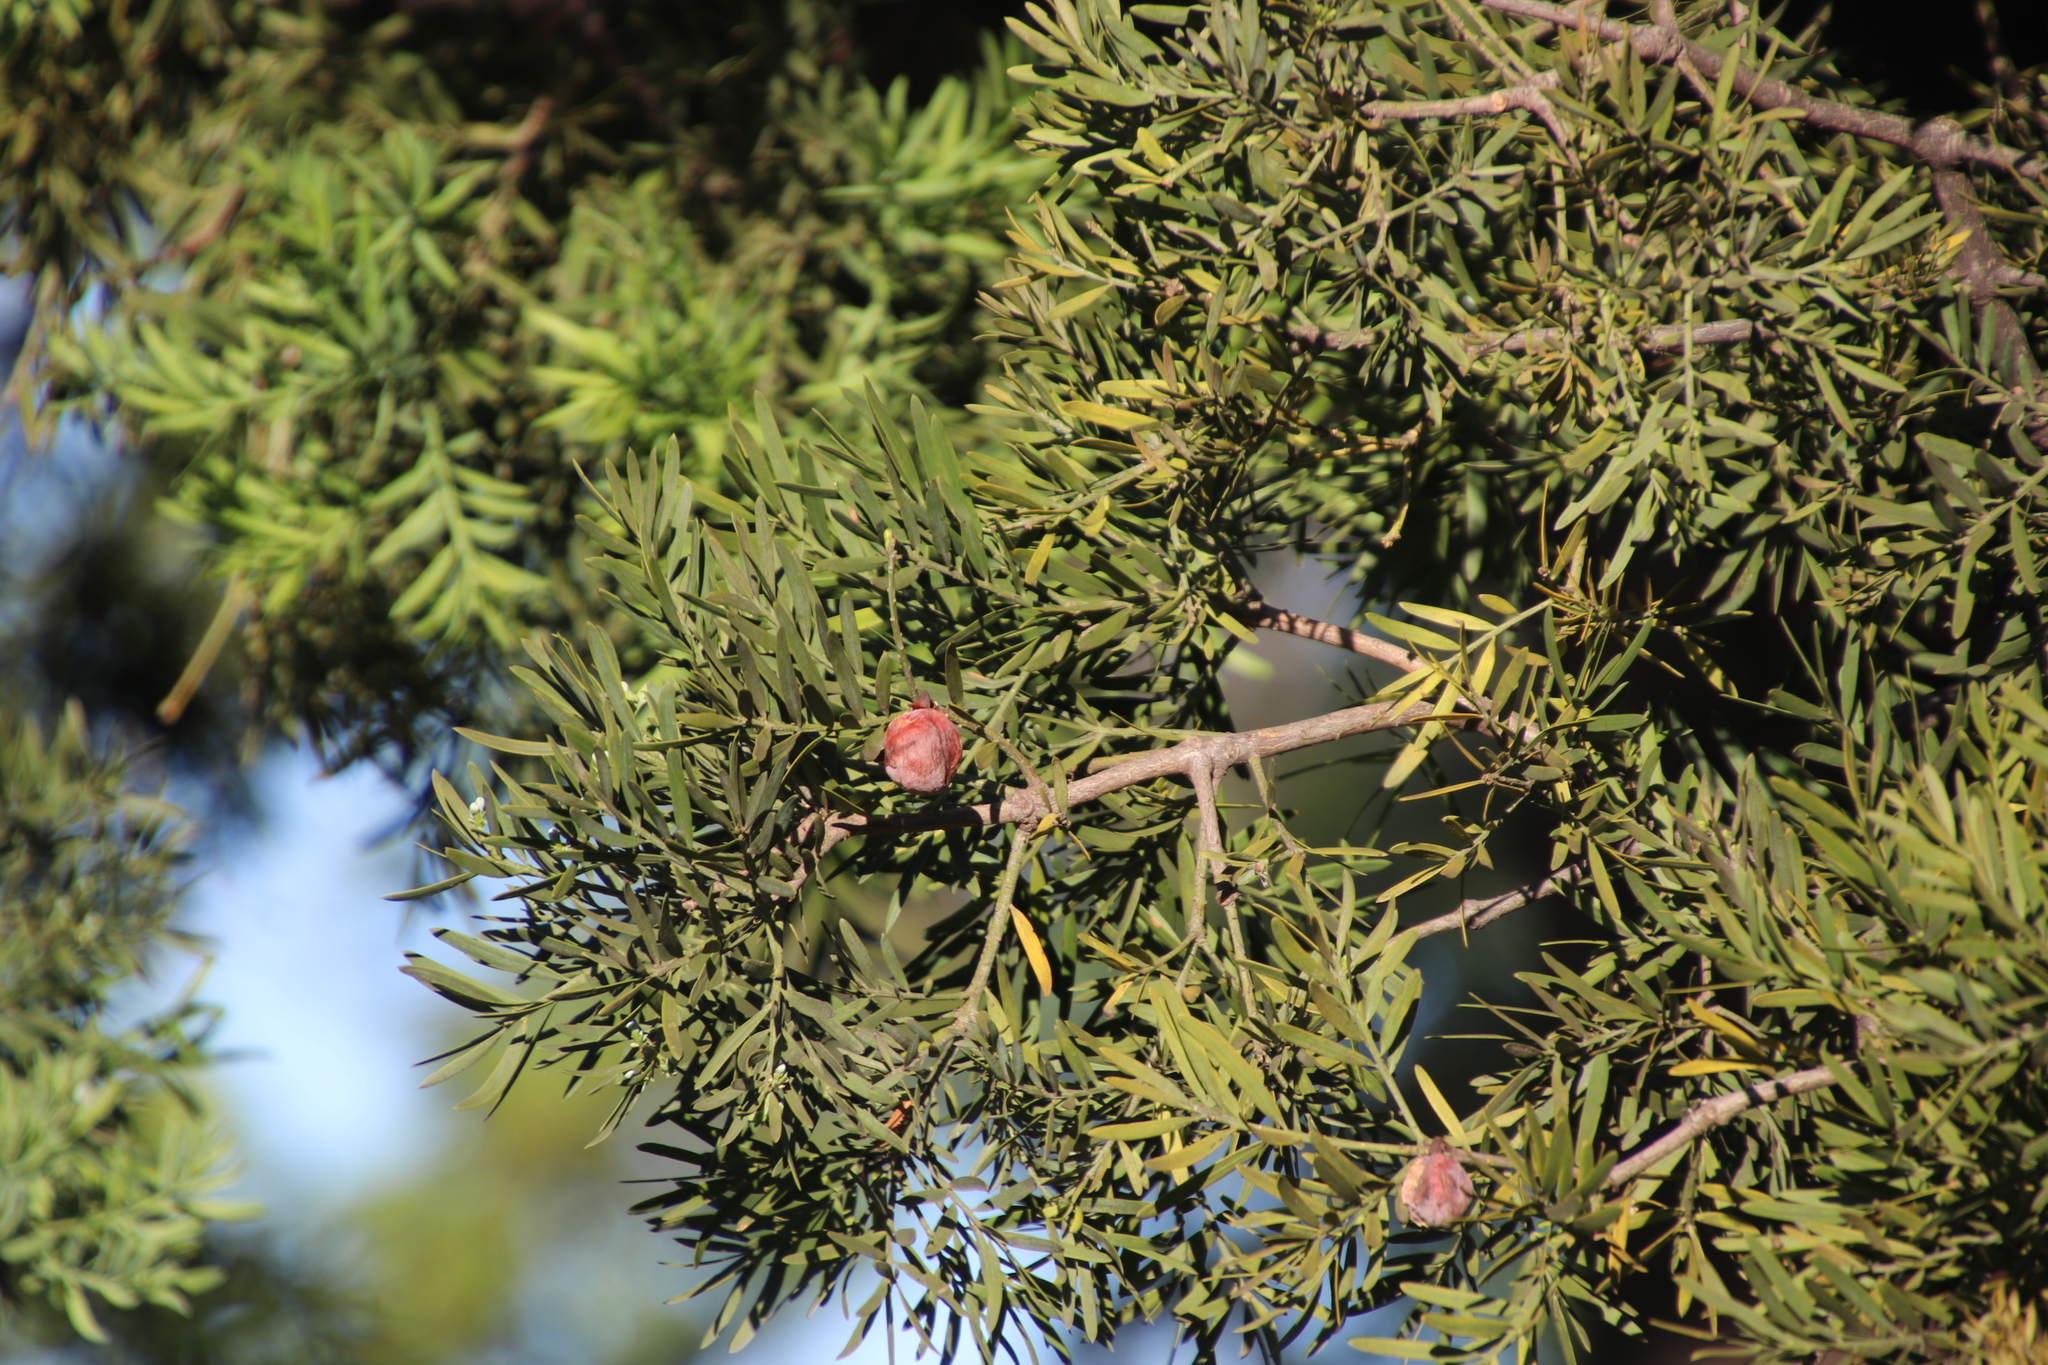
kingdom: Plantae
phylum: Tracheophyta
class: Pinopsida
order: Pinales
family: Podocarpaceae
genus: Afrocarpus
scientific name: Afrocarpus falcatus
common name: Bastard yellowwood
